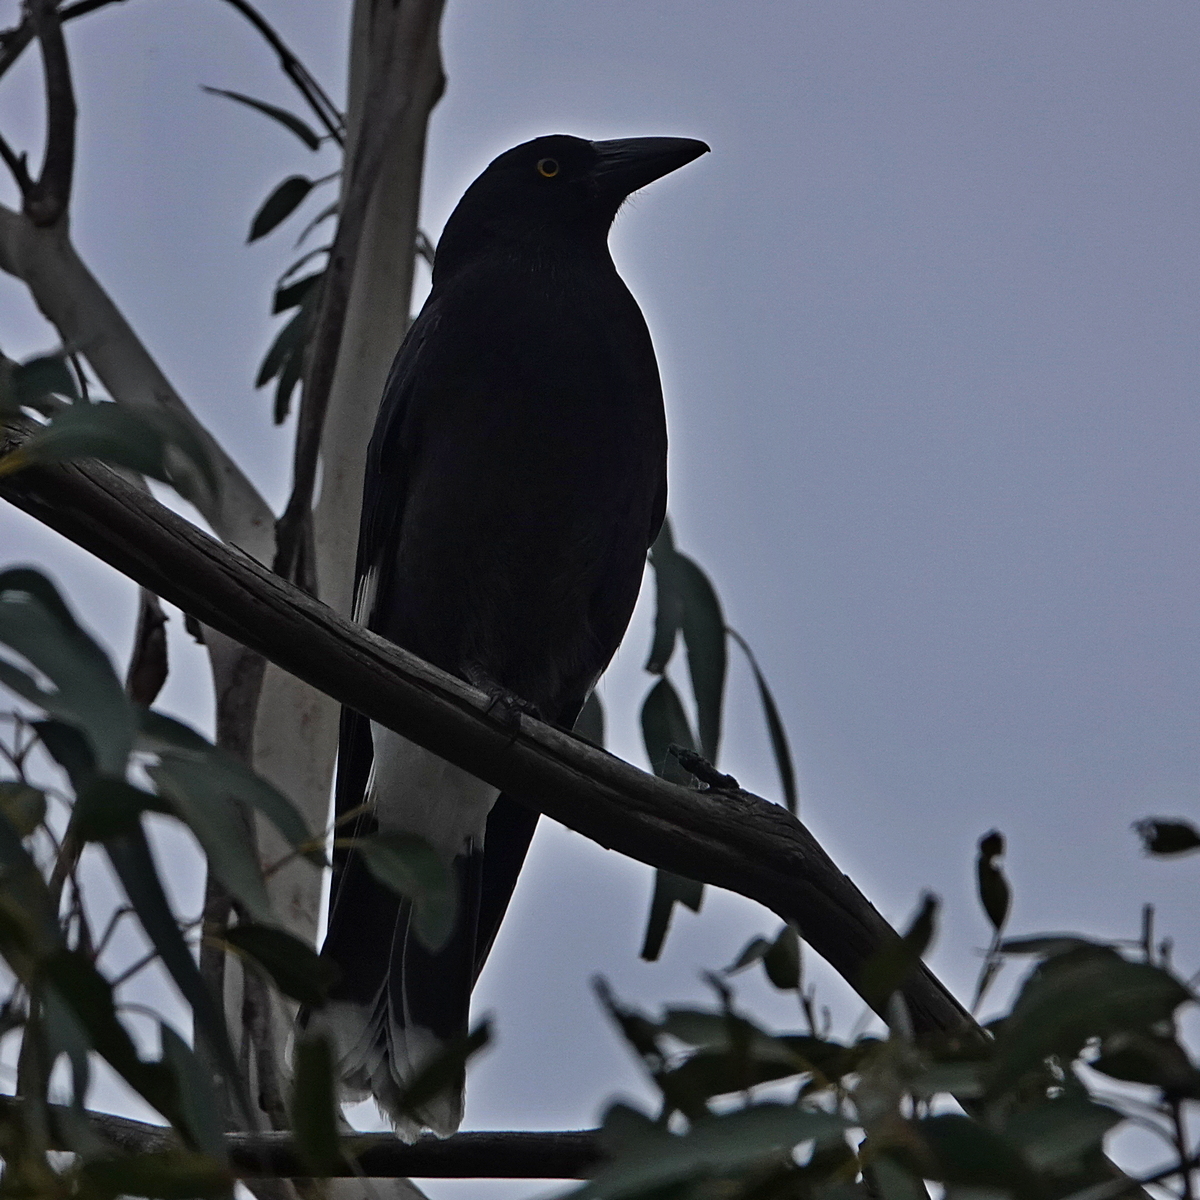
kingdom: Animalia
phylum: Chordata
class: Aves
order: Passeriformes
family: Cracticidae
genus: Strepera
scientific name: Strepera graculina
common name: Pied currawong
